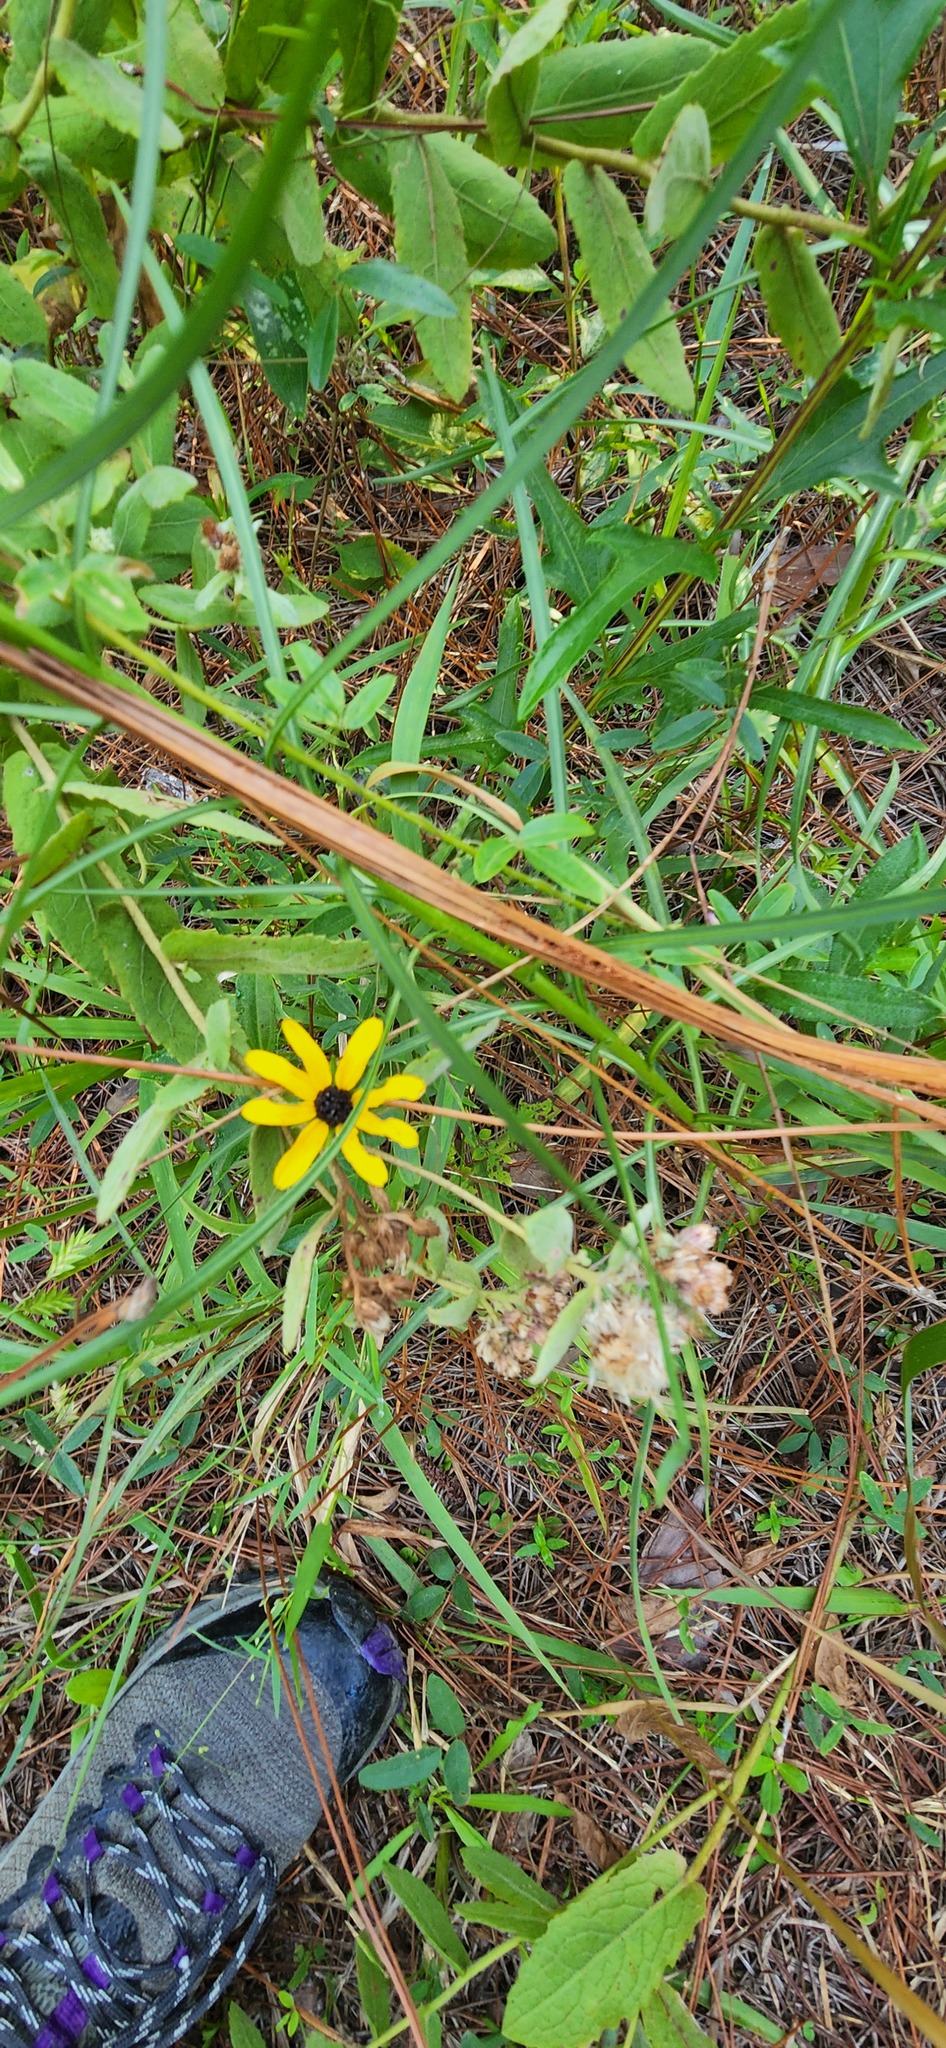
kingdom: Plantae
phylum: Tracheophyta
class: Magnoliopsida
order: Asterales
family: Asteraceae
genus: Rudbeckia
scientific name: Rudbeckia hirta
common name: Black-eyed-susan
